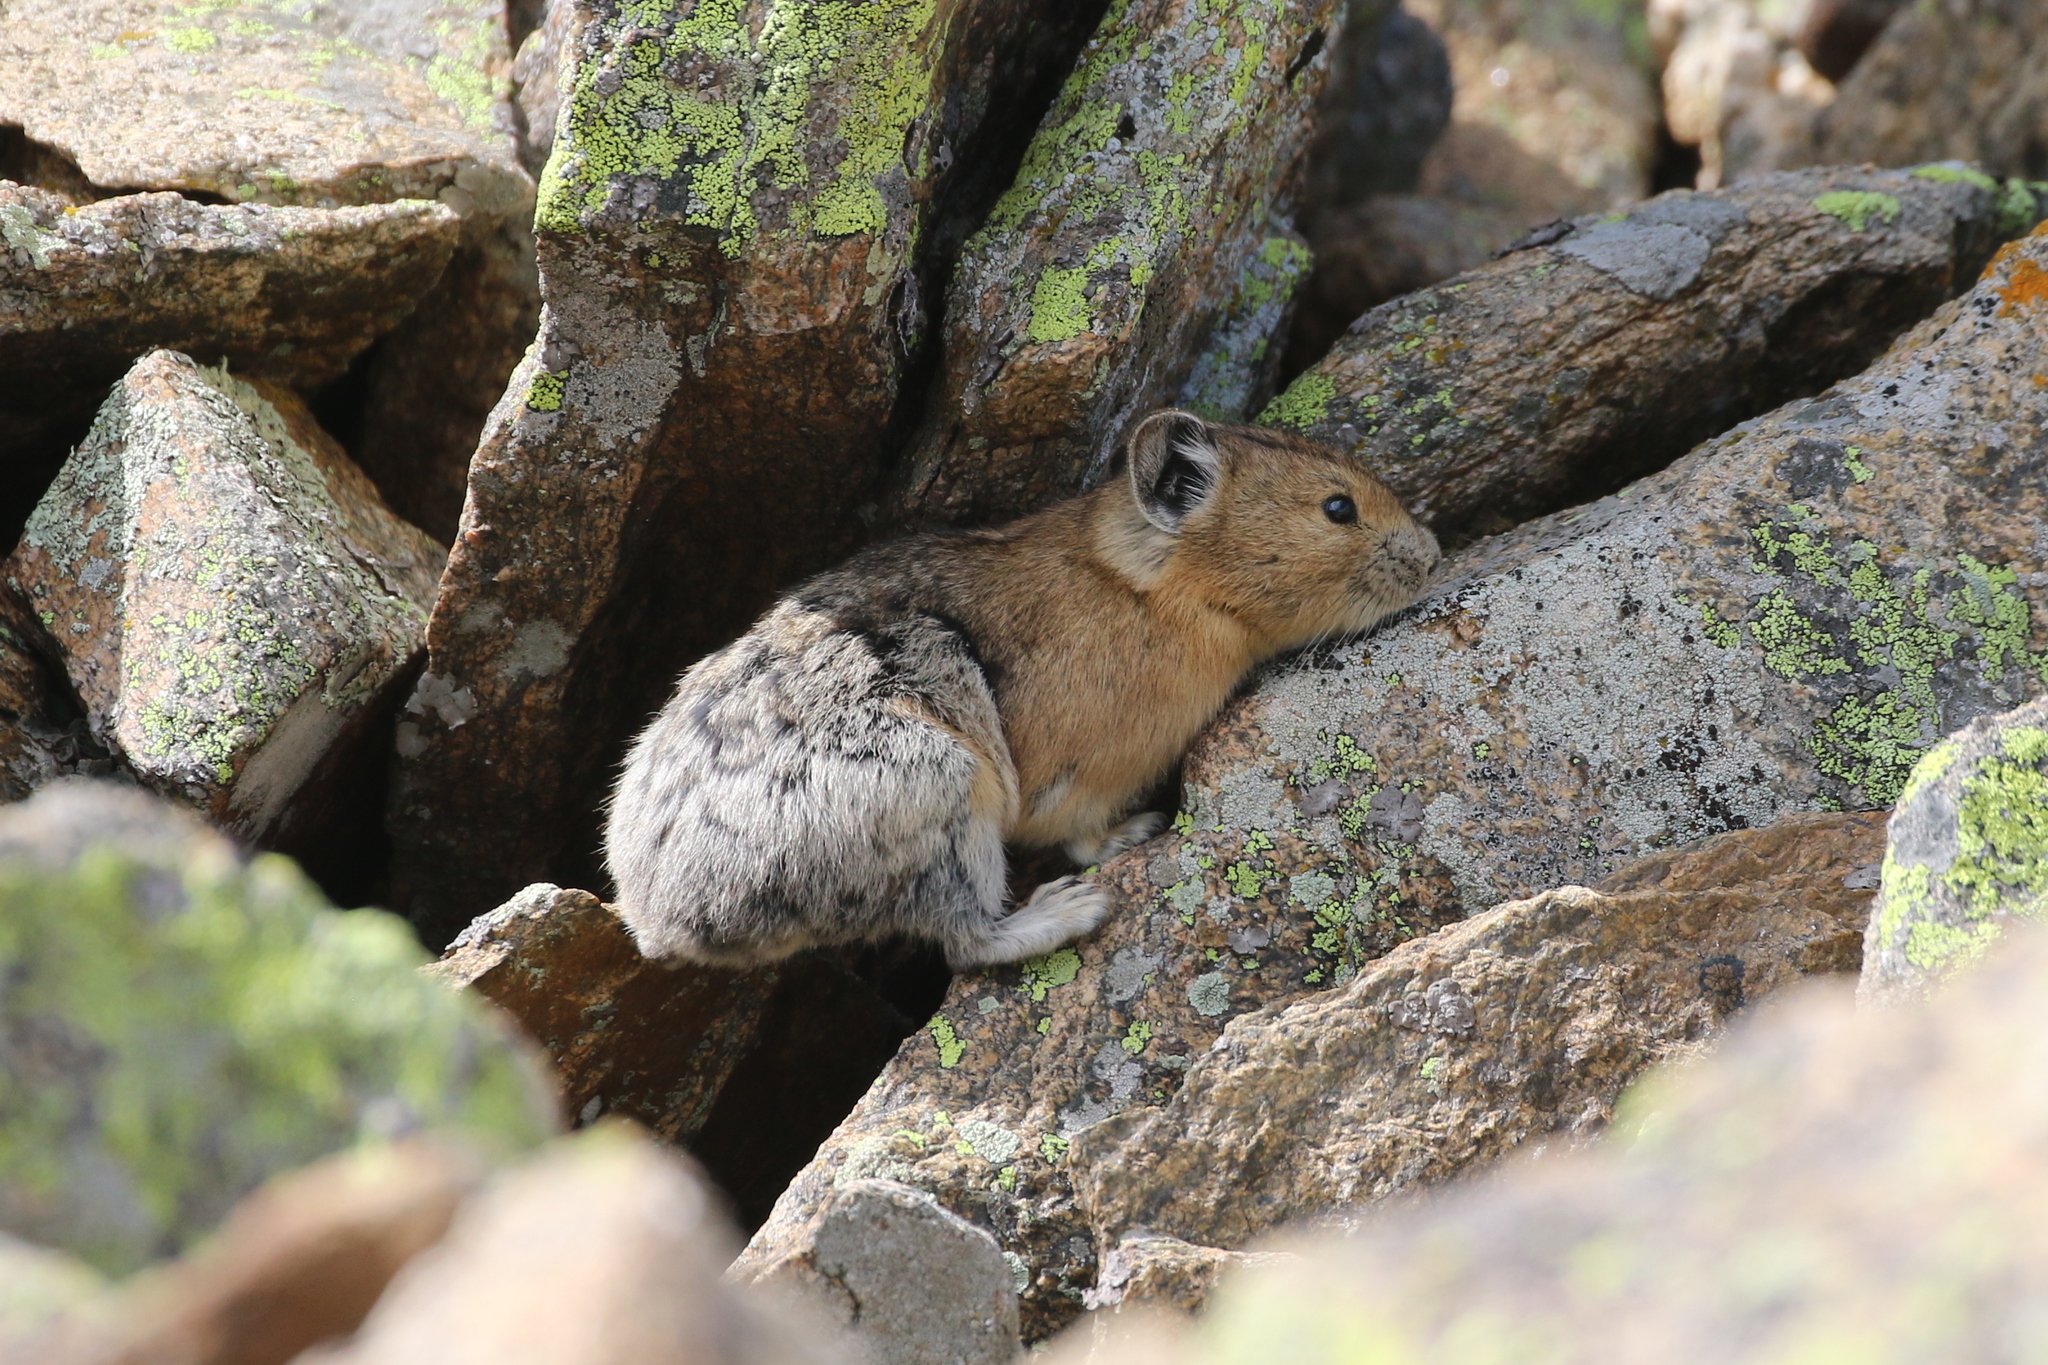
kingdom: Animalia
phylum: Chordata
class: Mammalia
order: Lagomorpha
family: Ochotonidae
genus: Ochotona
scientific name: Ochotona princeps
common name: American pika
